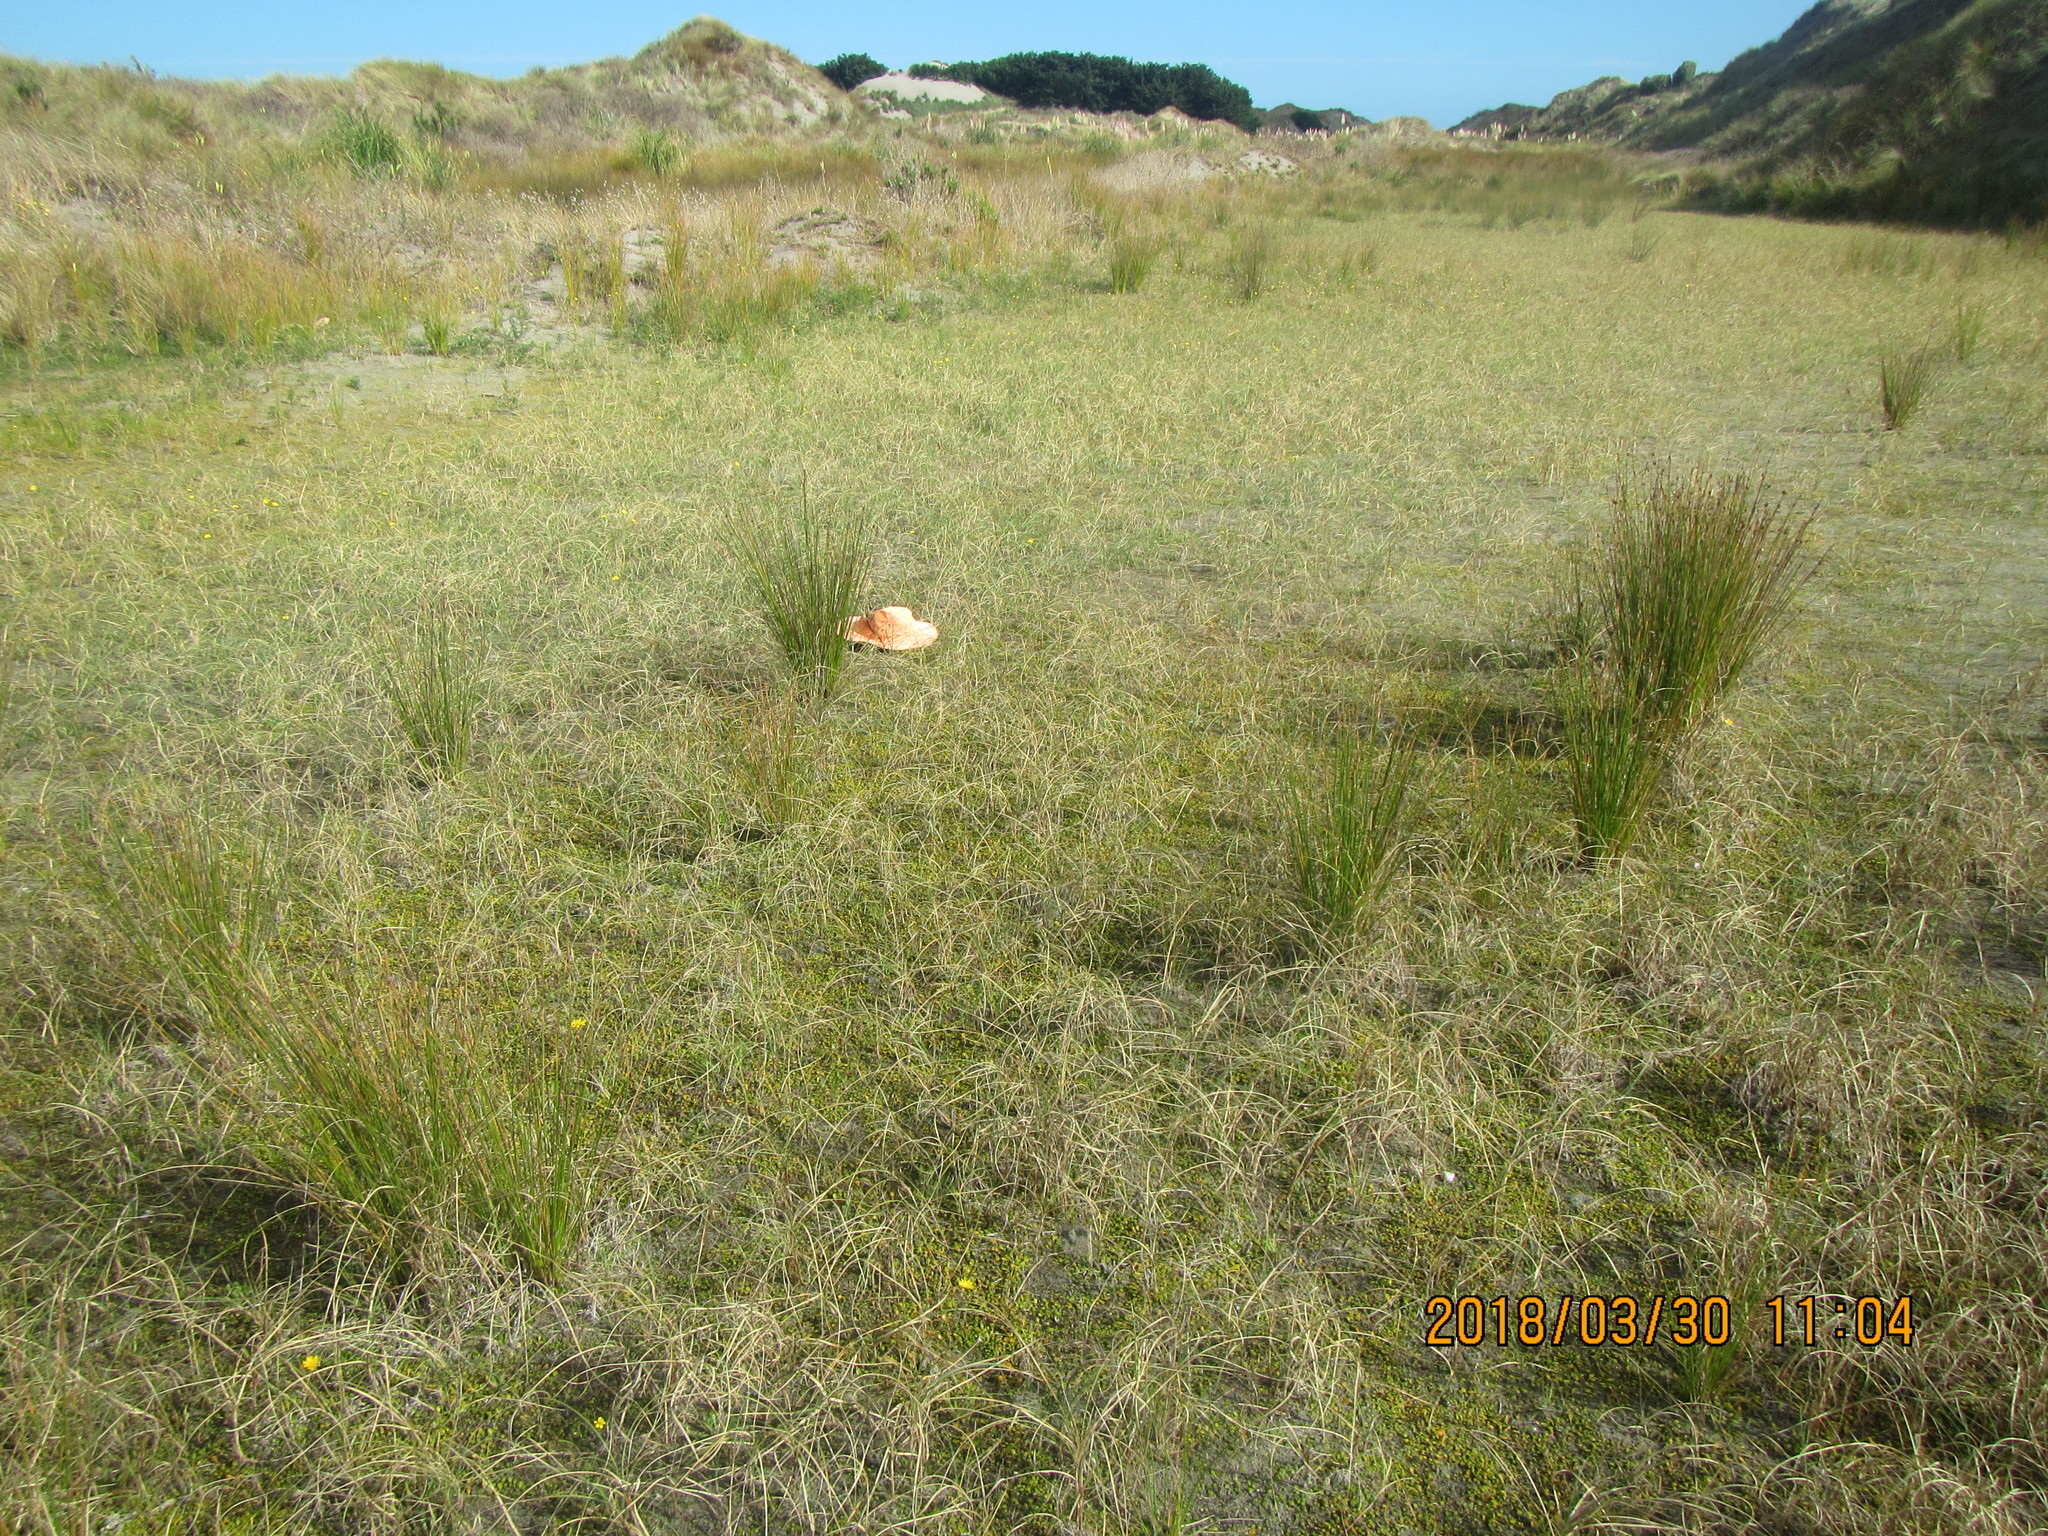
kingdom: Plantae
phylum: Tracheophyta
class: Magnoliopsida
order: Asterales
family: Goodeniaceae
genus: Goodenia
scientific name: Goodenia heenanii
